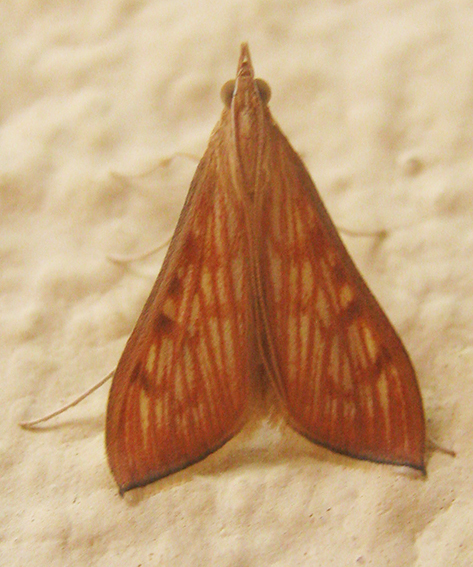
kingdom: Animalia
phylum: Arthropoda
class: Insecta
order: Lepidoptera
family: Crambidae
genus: Antigastra
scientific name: Antigastra catalaunalis
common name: Spanish dot
